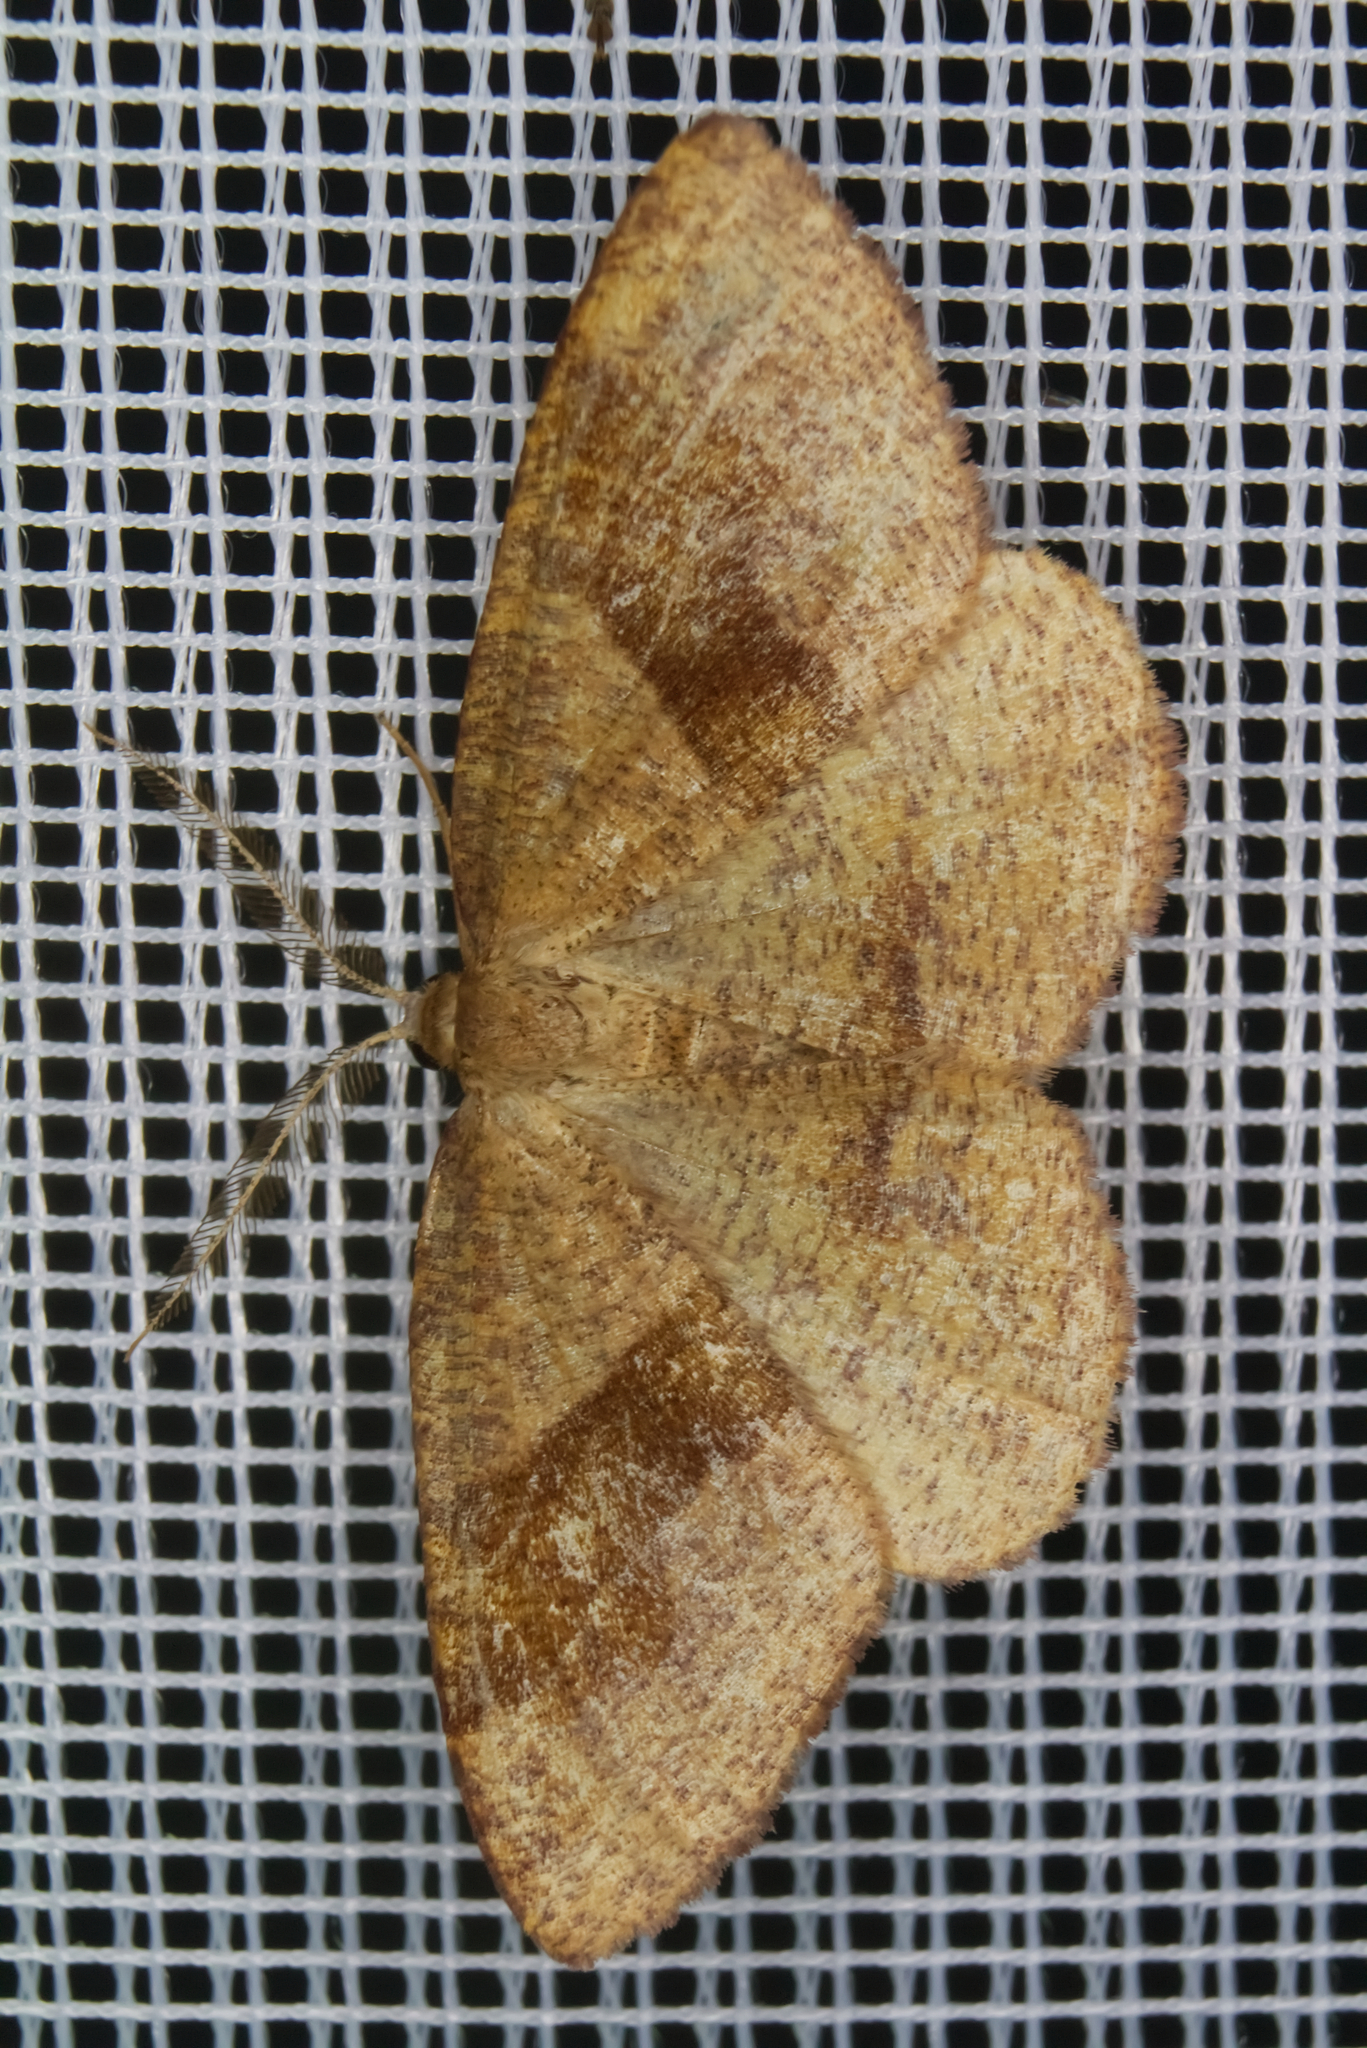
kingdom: Animalia
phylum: Arthropoda
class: Insecta
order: Lepidoptera
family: Geometridae
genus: Plagodis
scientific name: Plagodis pulveraria
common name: Barred umber
